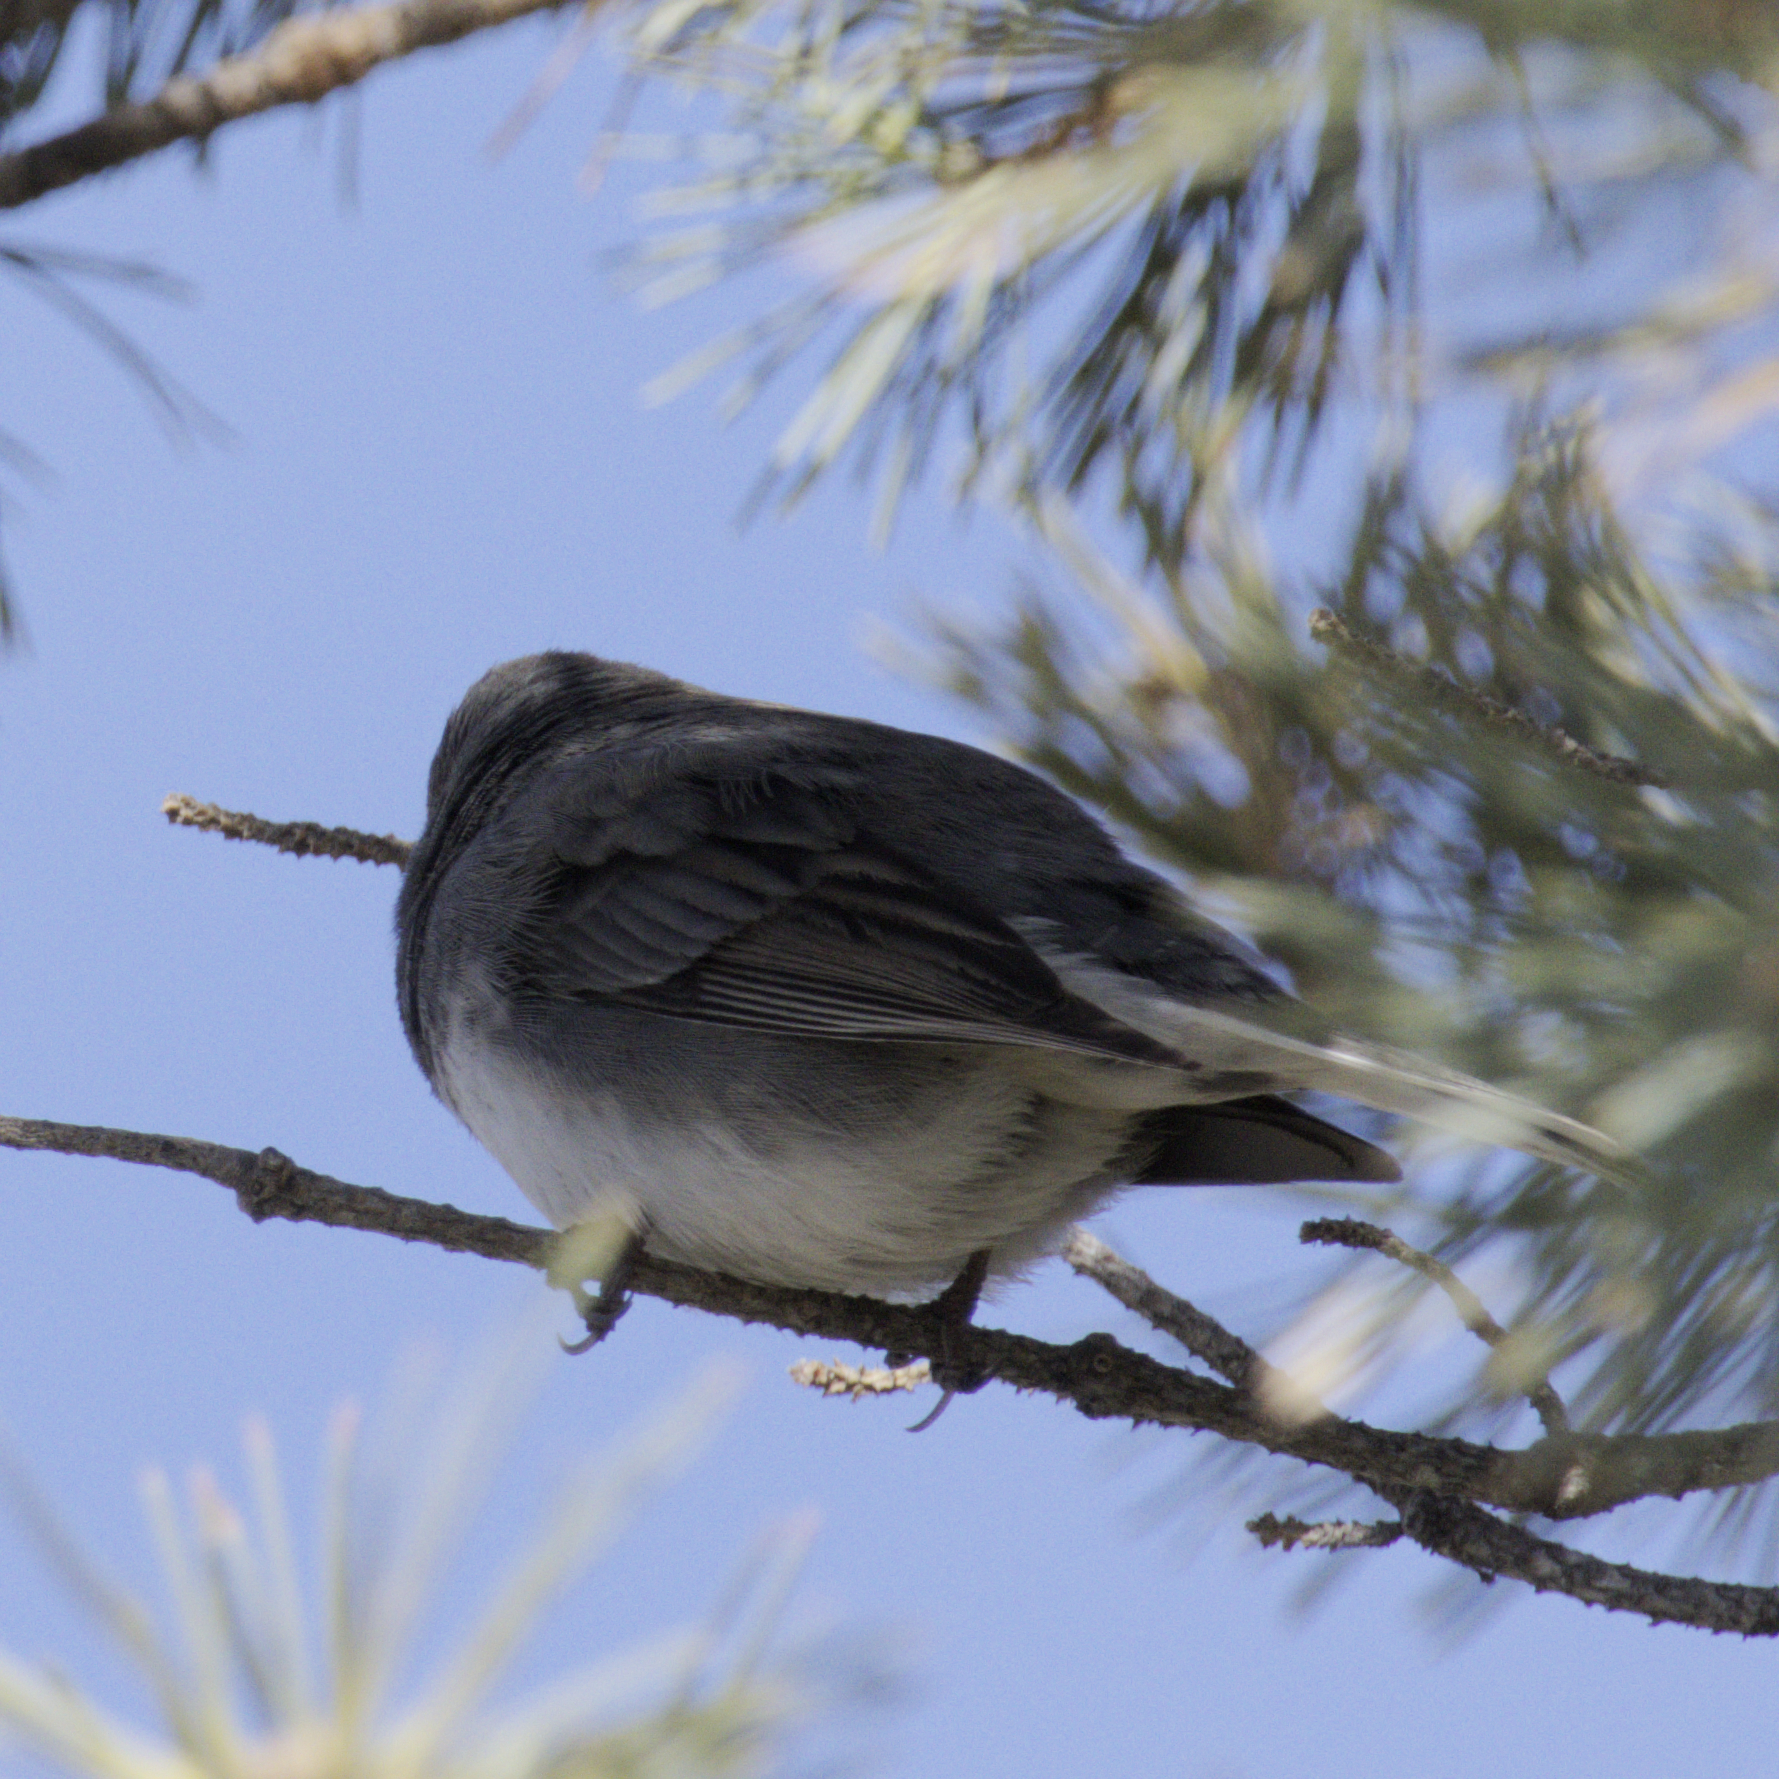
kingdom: Animalia
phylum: Chordata
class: Aves
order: Passeriformes
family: Passerellidae
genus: Junco
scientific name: Junco hyemalis
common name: Dark-eyed junco
